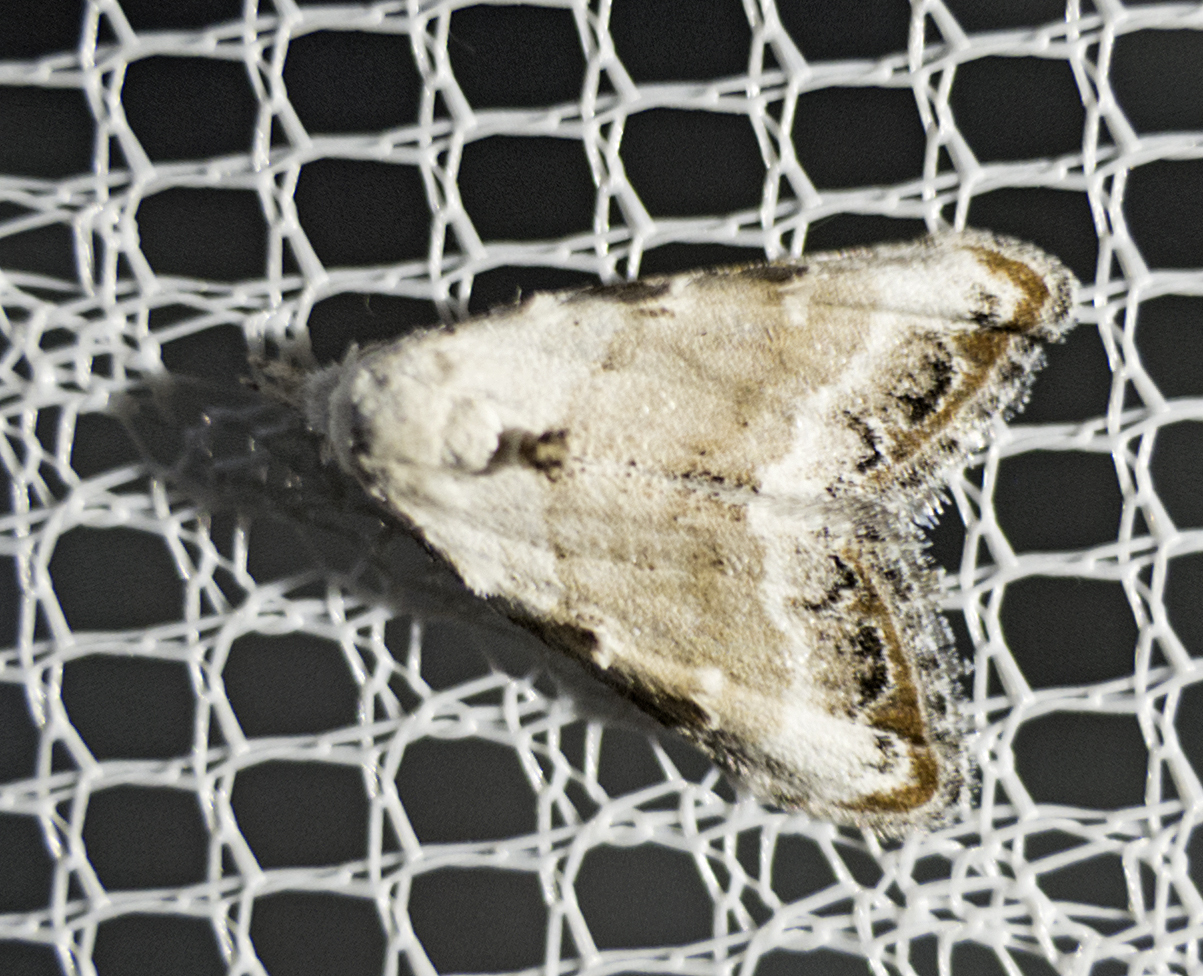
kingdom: Animalia
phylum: Arthropoda
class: Insecta
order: Lepidoptera
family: Nolidae
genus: Nola
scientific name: Nola chlamitulalis
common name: Jersey black arches
